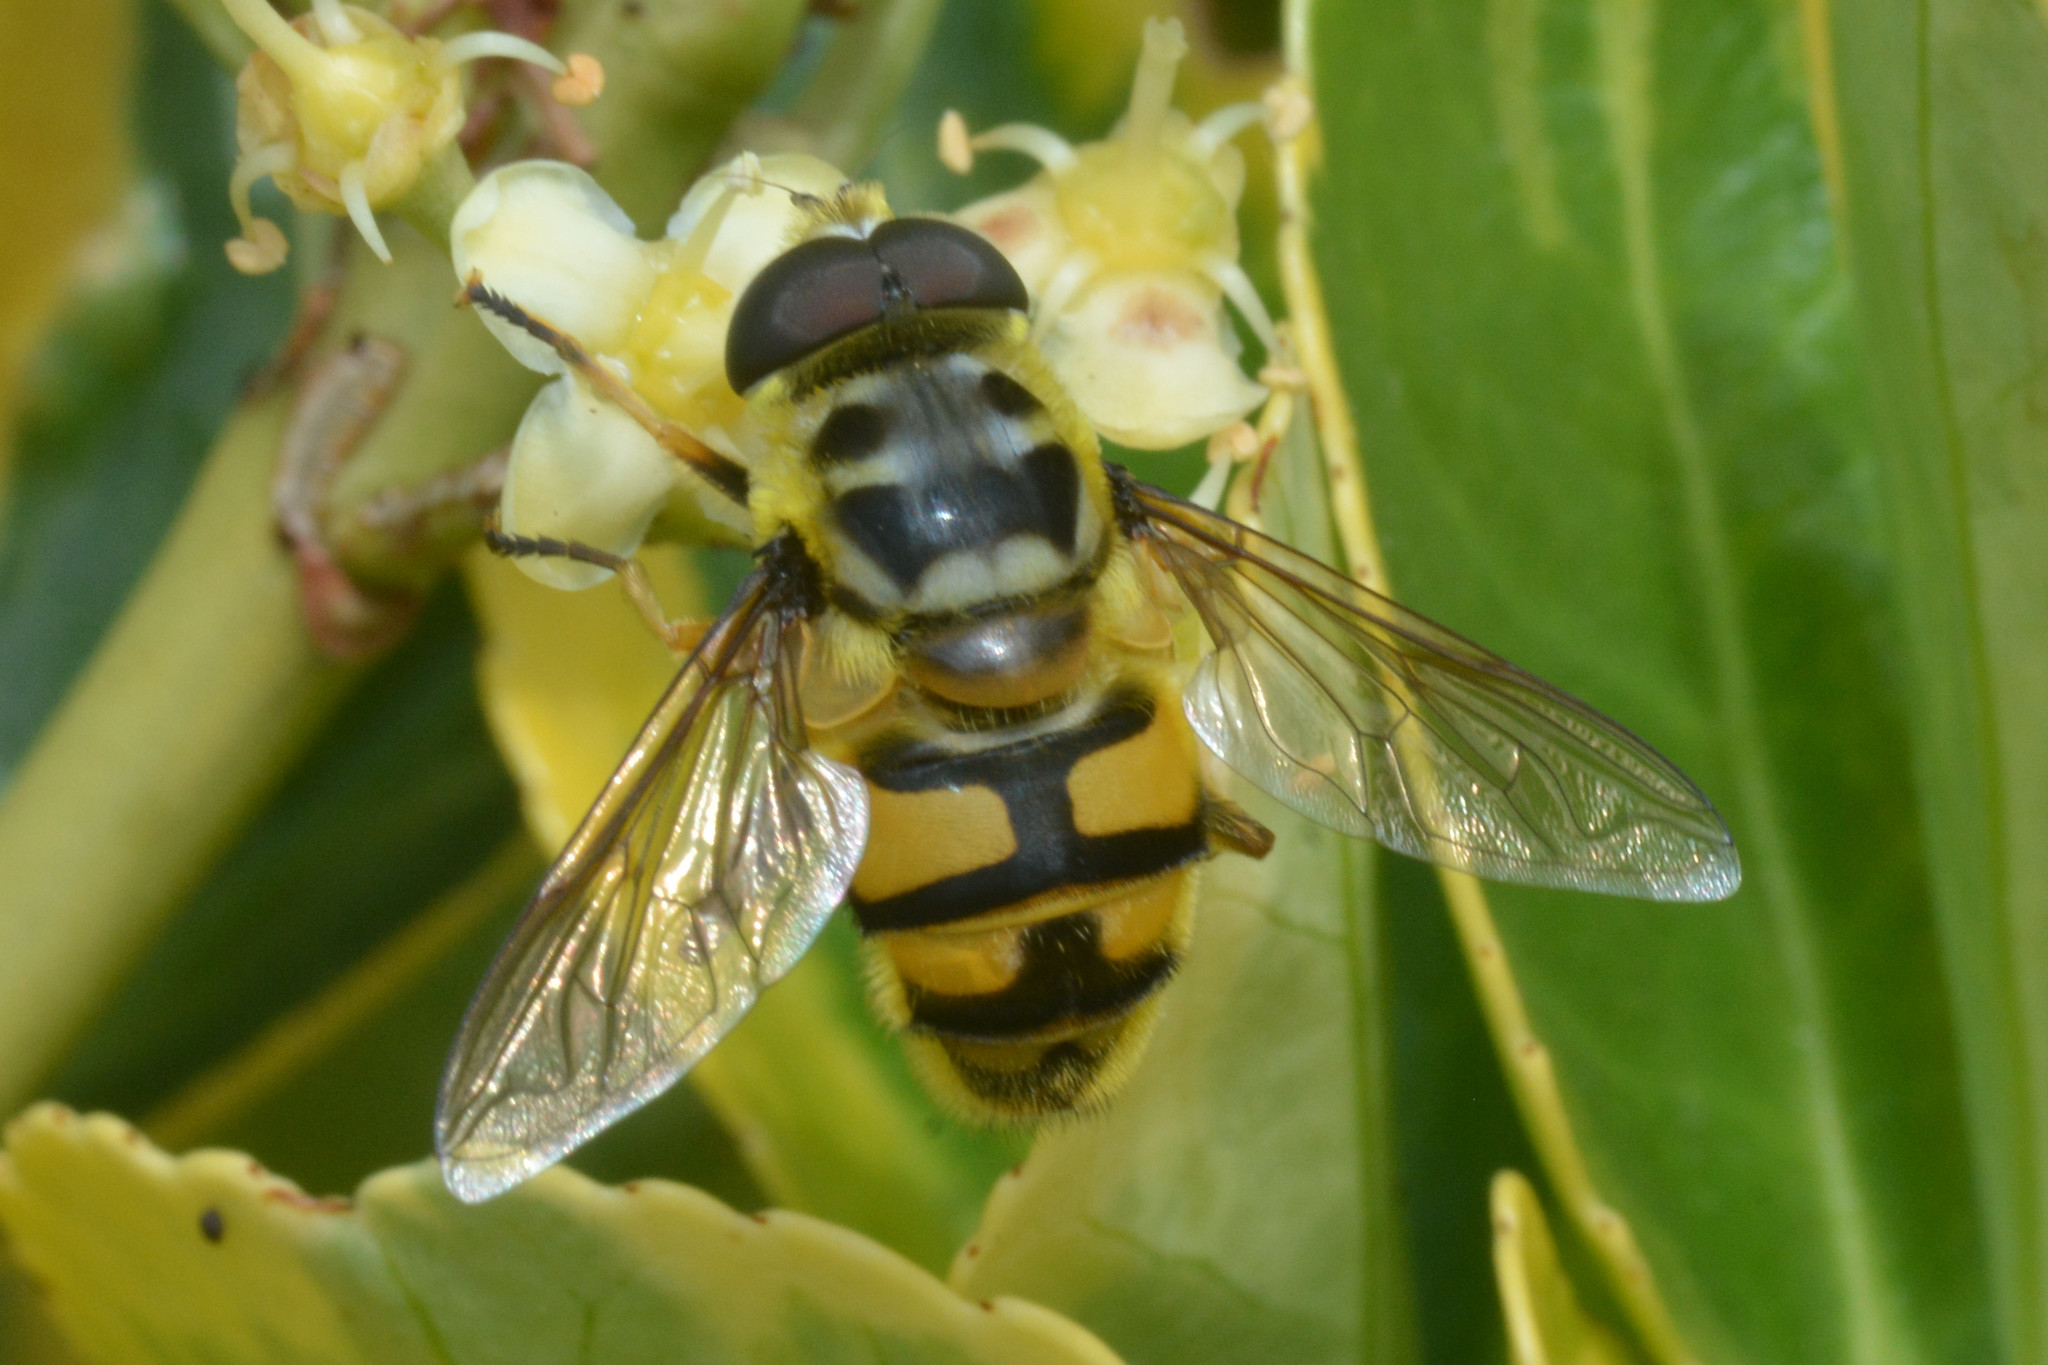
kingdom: Animalia
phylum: Arthropoda
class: Insecta
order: Diptera
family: Syrphidae
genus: Myathropa
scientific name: Myathropa florea
